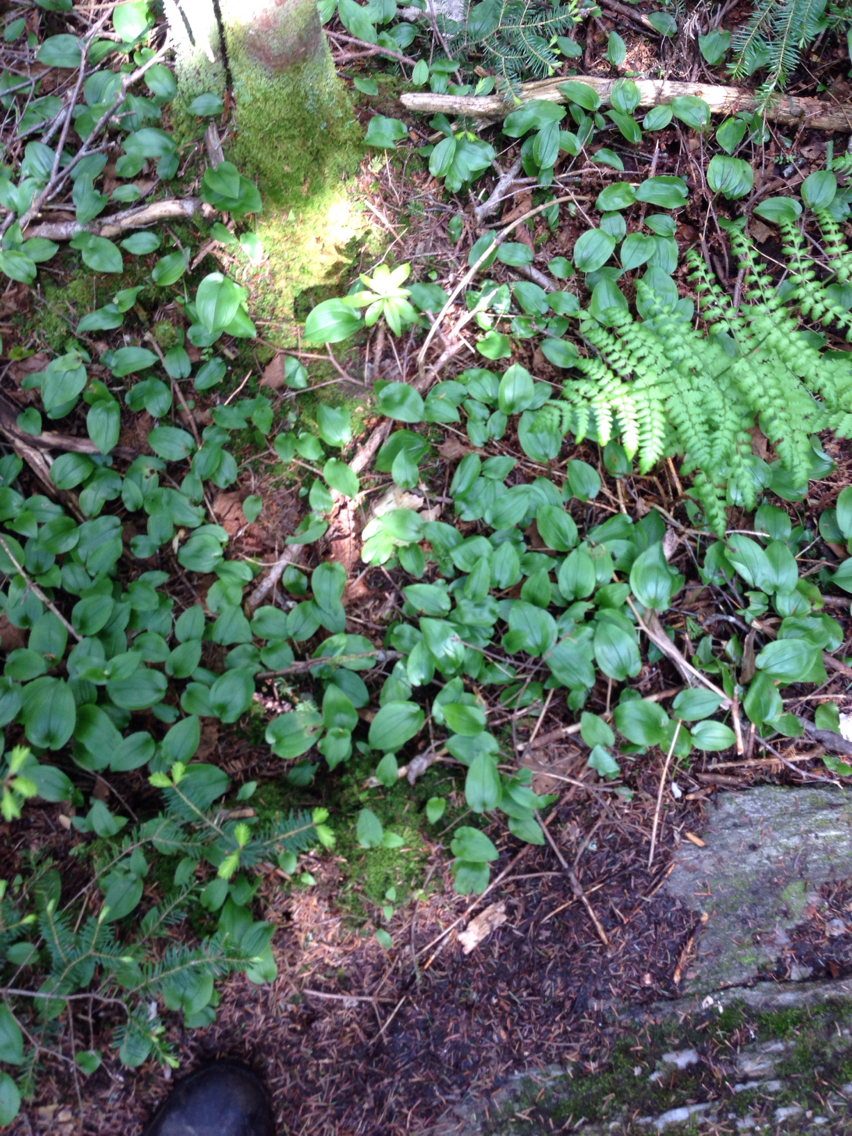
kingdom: Plantae
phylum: Tracheophyta
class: Liliopsida
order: Asparagales
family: Asparagaceae
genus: Maianthemum
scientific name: Maianthemum canadense
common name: False lily-of-the-valley
